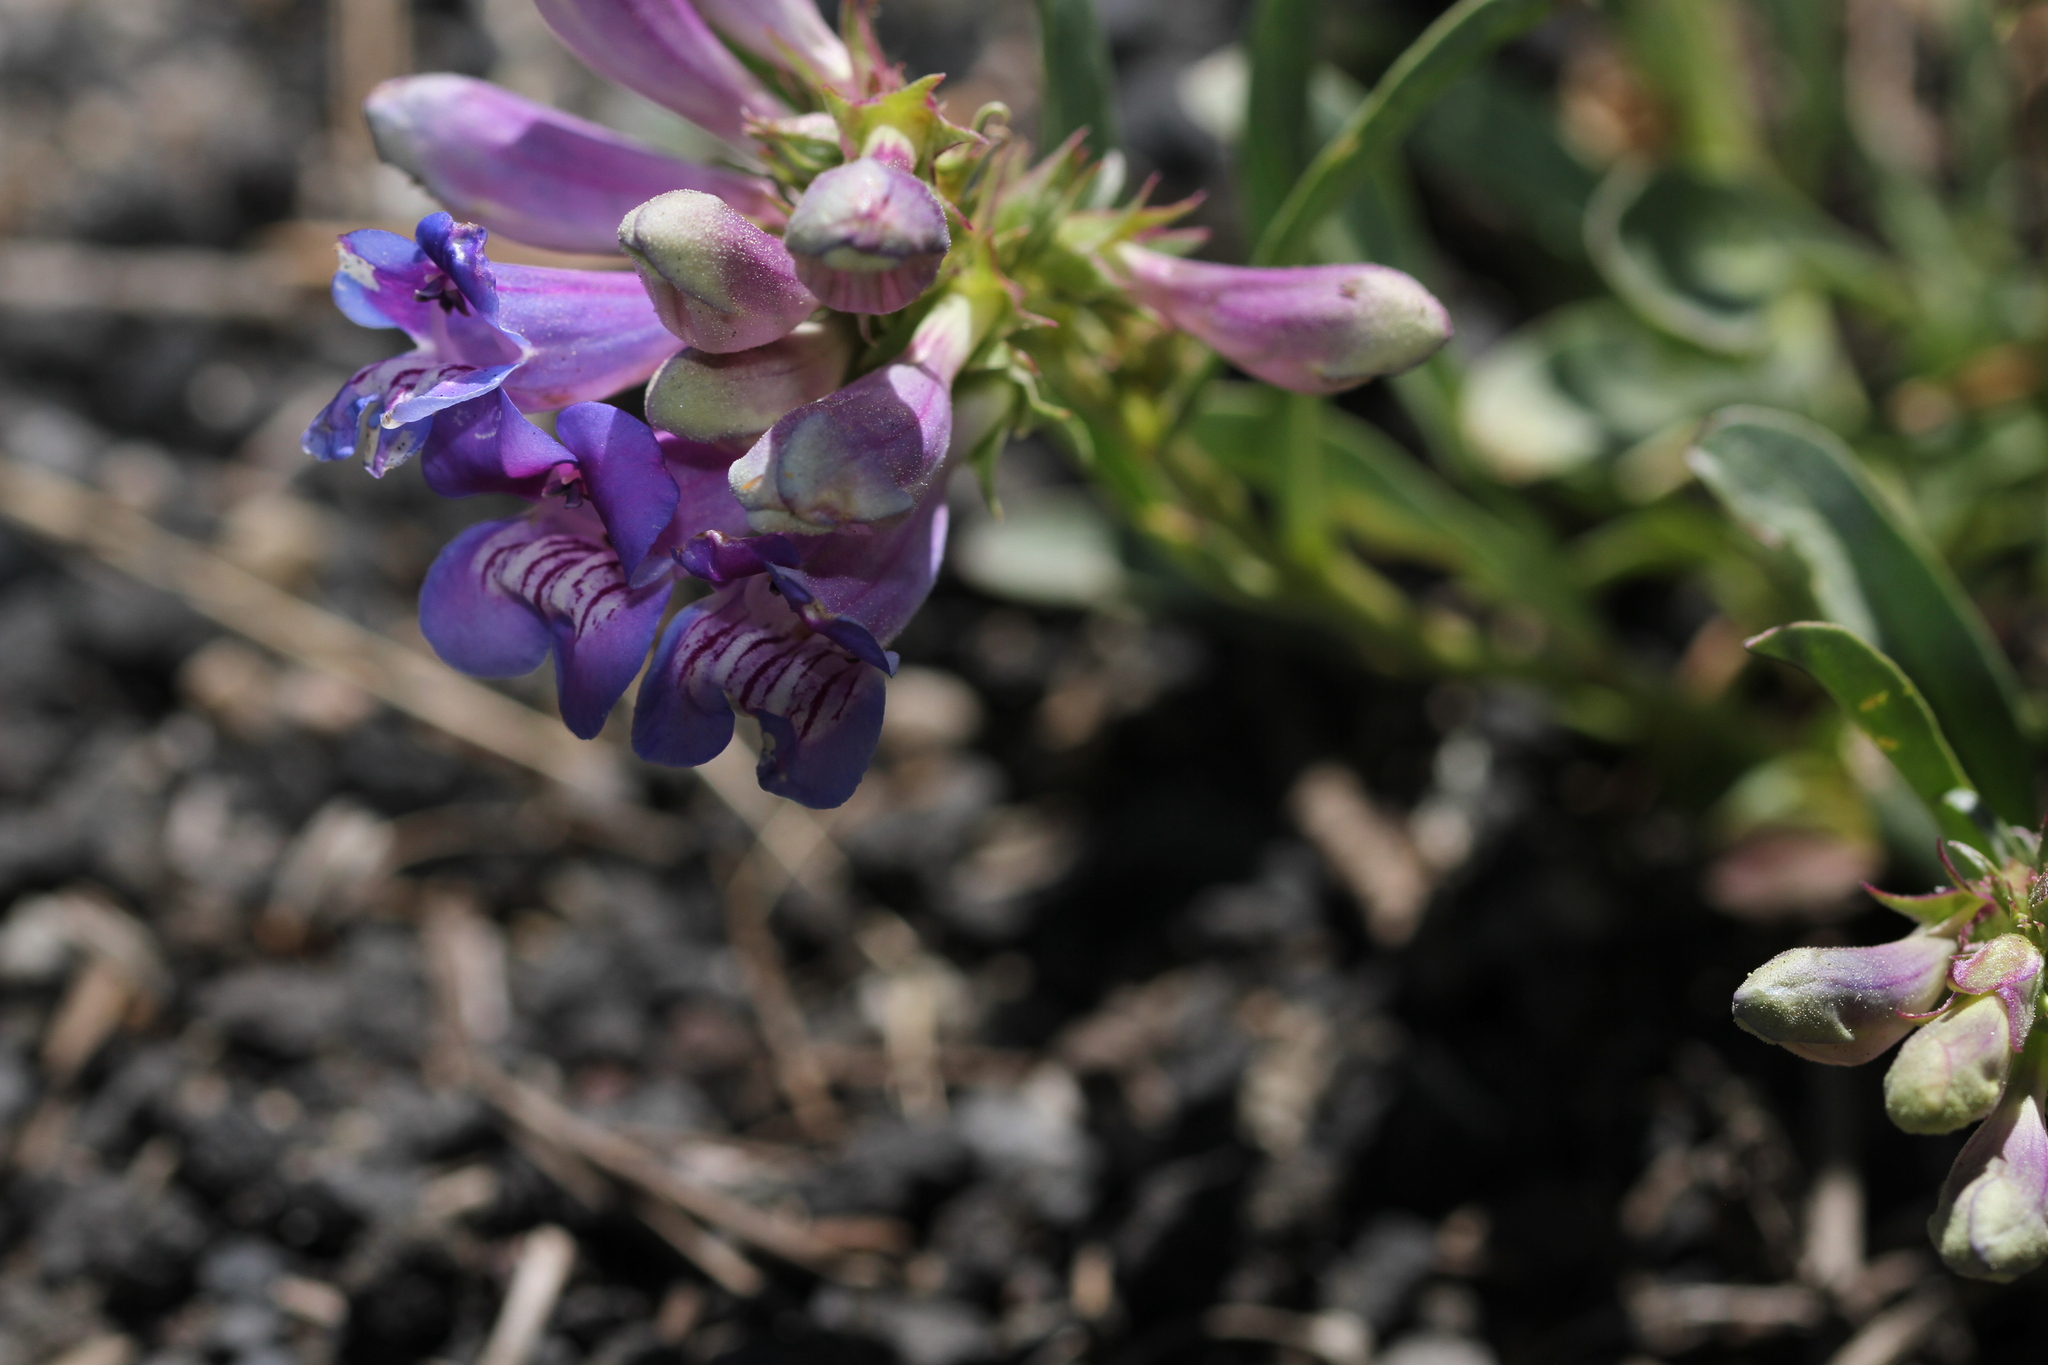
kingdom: Plantae
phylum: Tracheophyta
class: Magnoliopsida
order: Lamiales
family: Plantaginaceae
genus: Penstemon
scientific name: Penstemon speciosus
